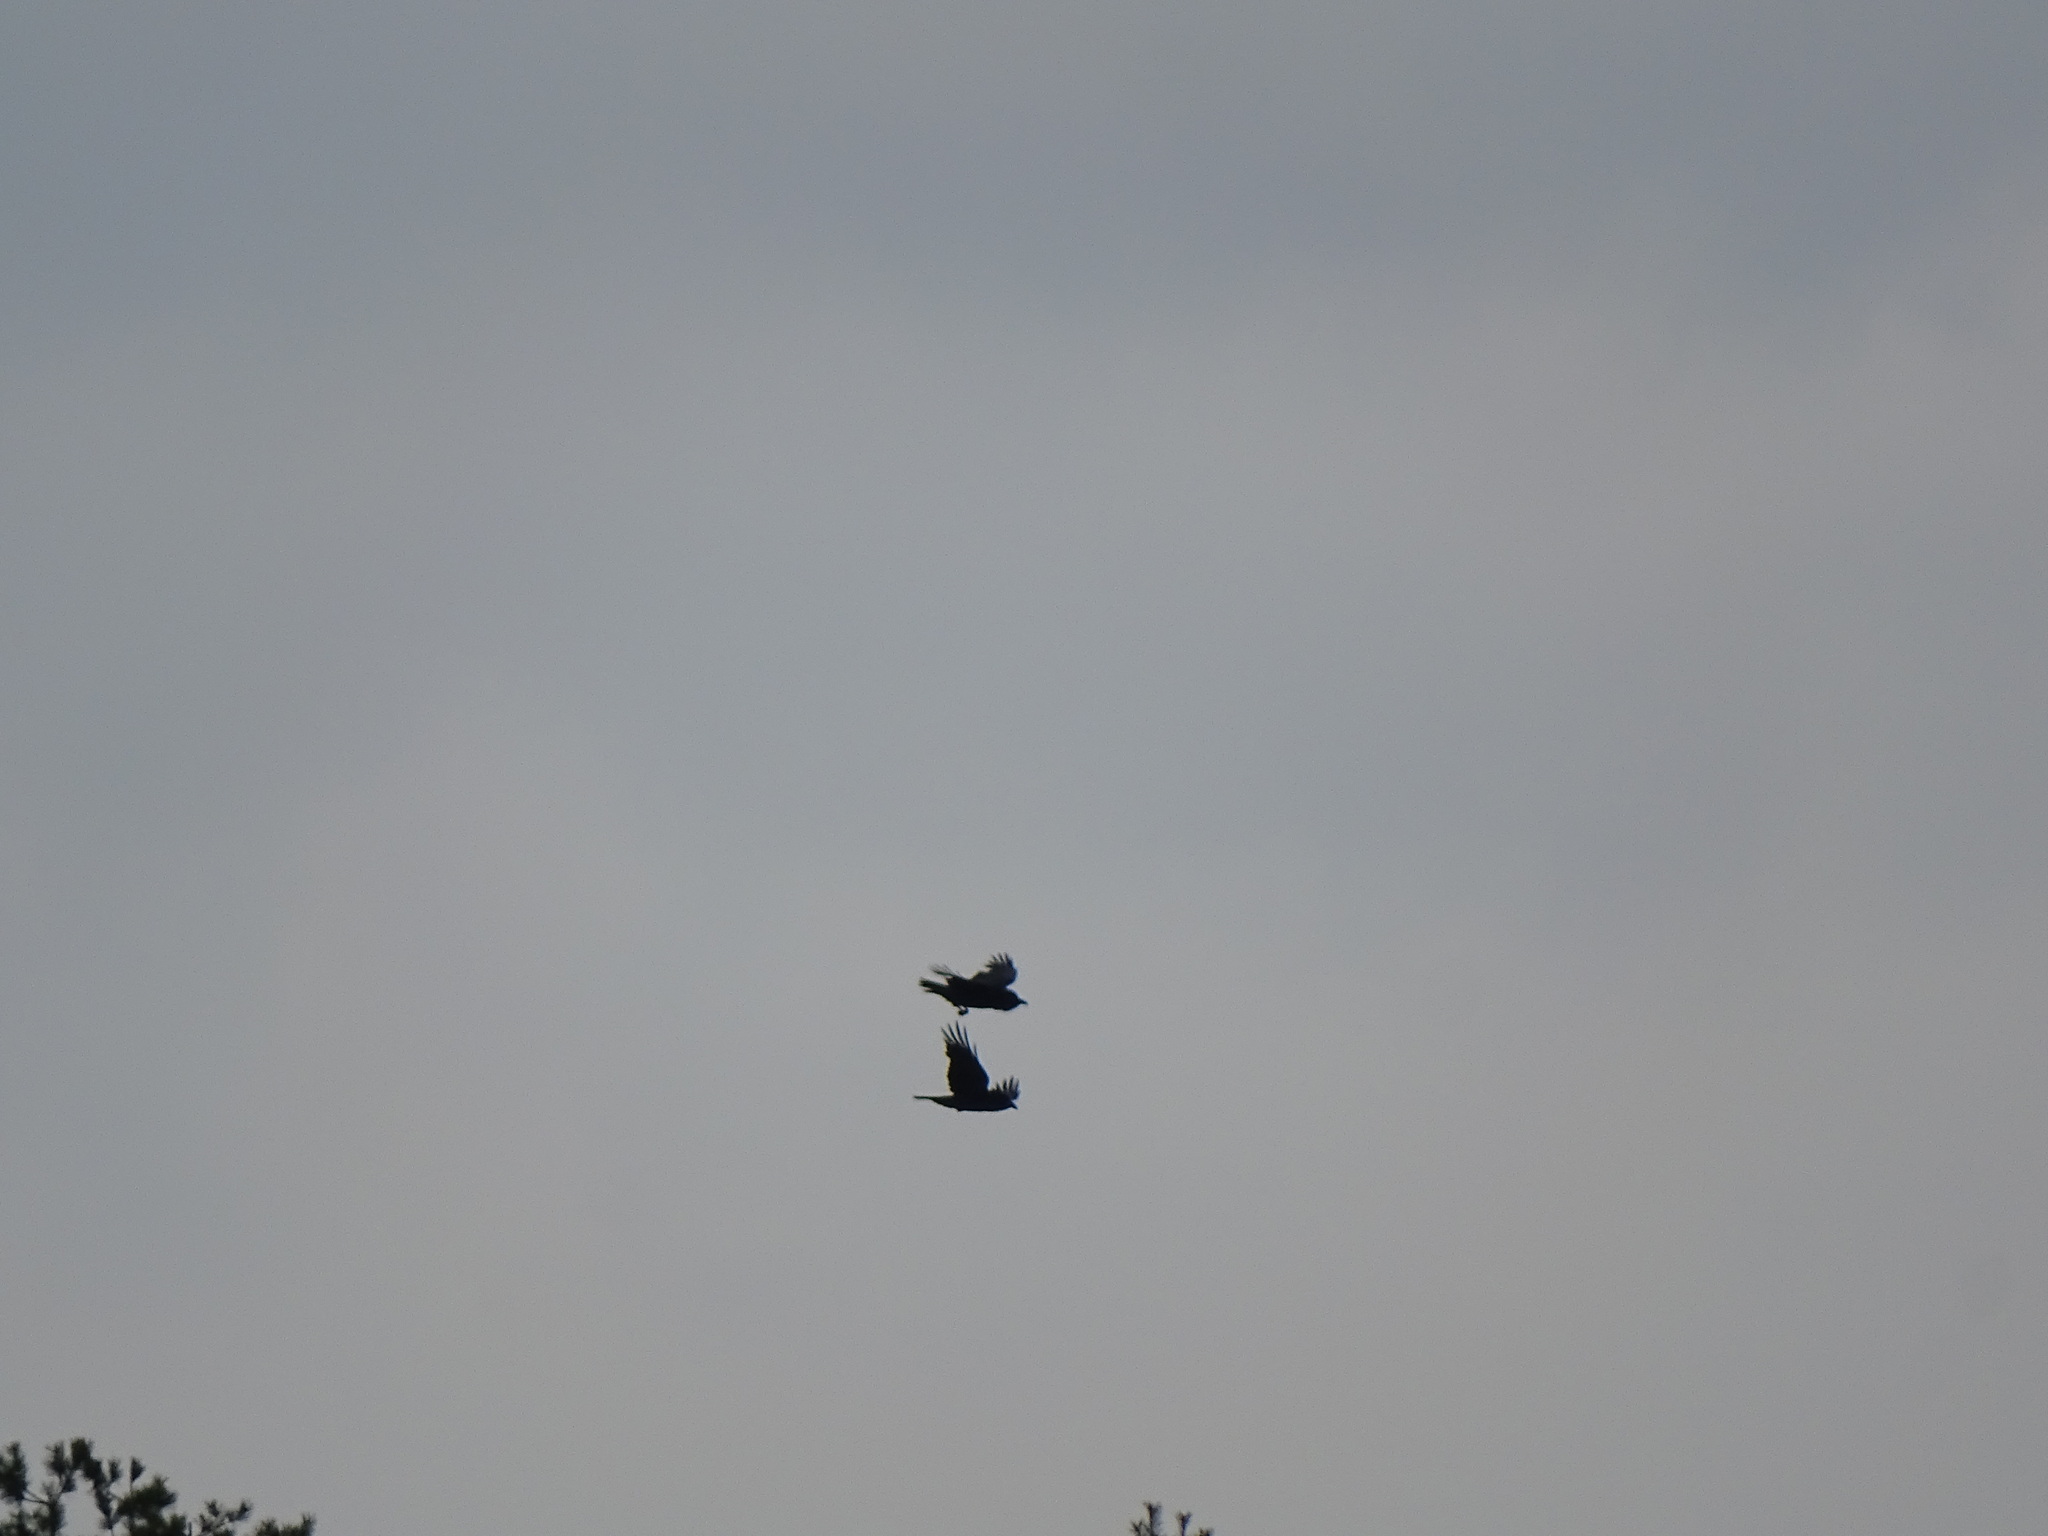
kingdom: Animalia
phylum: Chordata
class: Aves
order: Passeriformes
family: Corvidae
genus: Corvus
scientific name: Corvus corax
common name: Common raven
